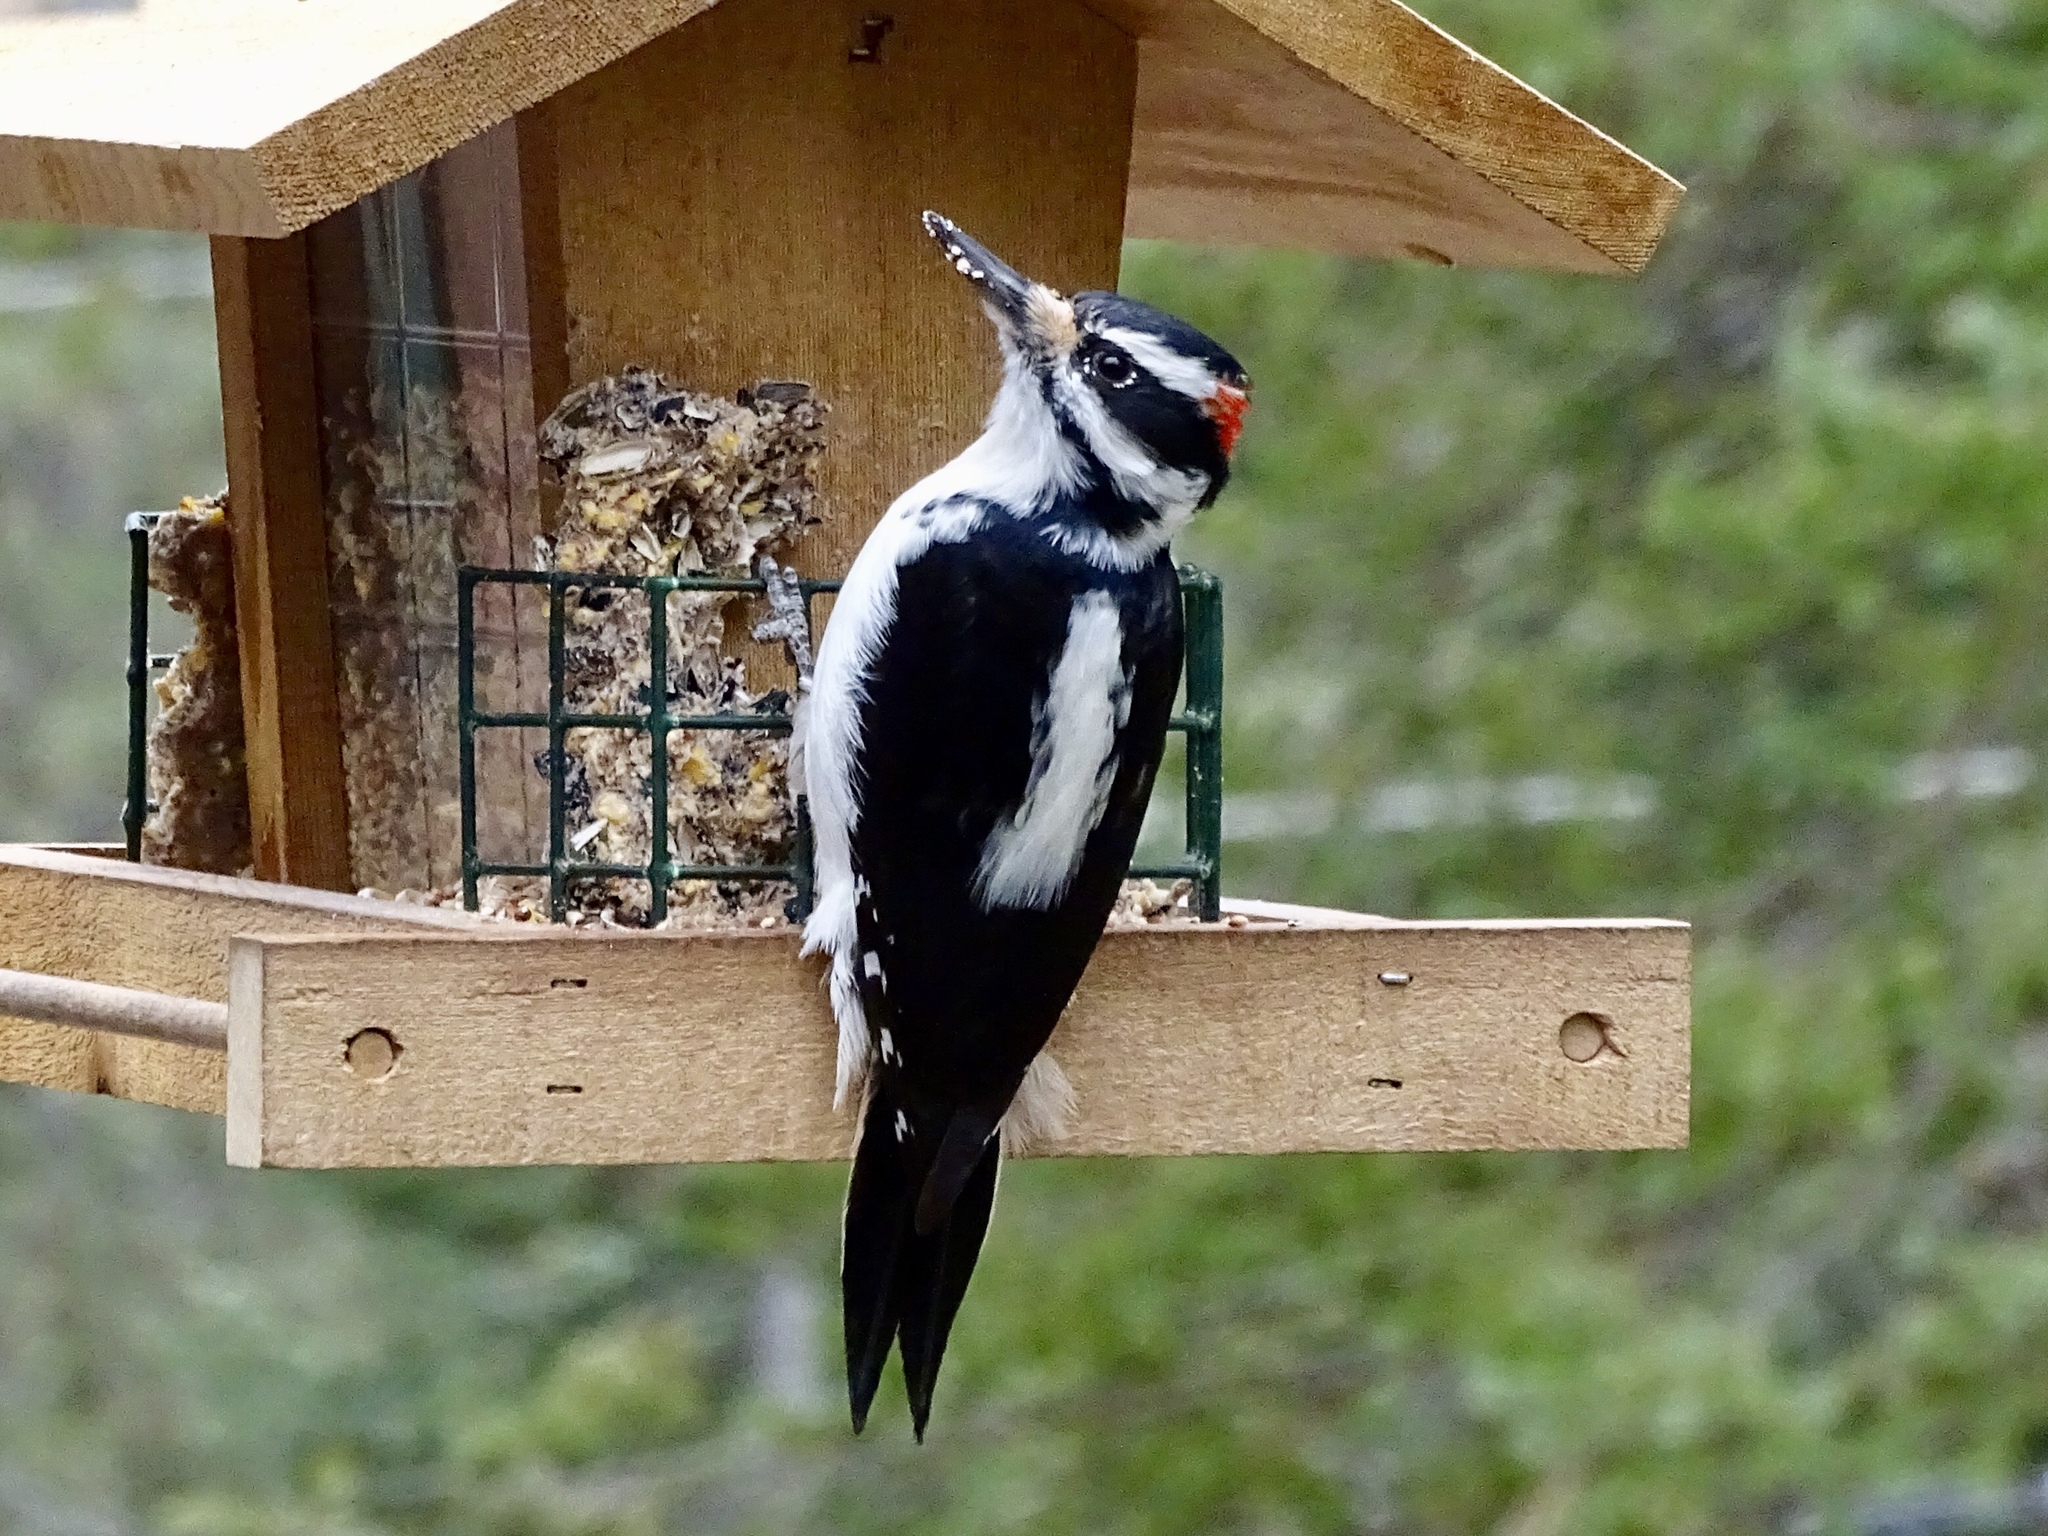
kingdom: Animalia
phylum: Chordata
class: Aves
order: Piciformes
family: Picidae
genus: Leuconotopicus
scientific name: Leuconotopicus villosus
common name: Hairy woodpecker
